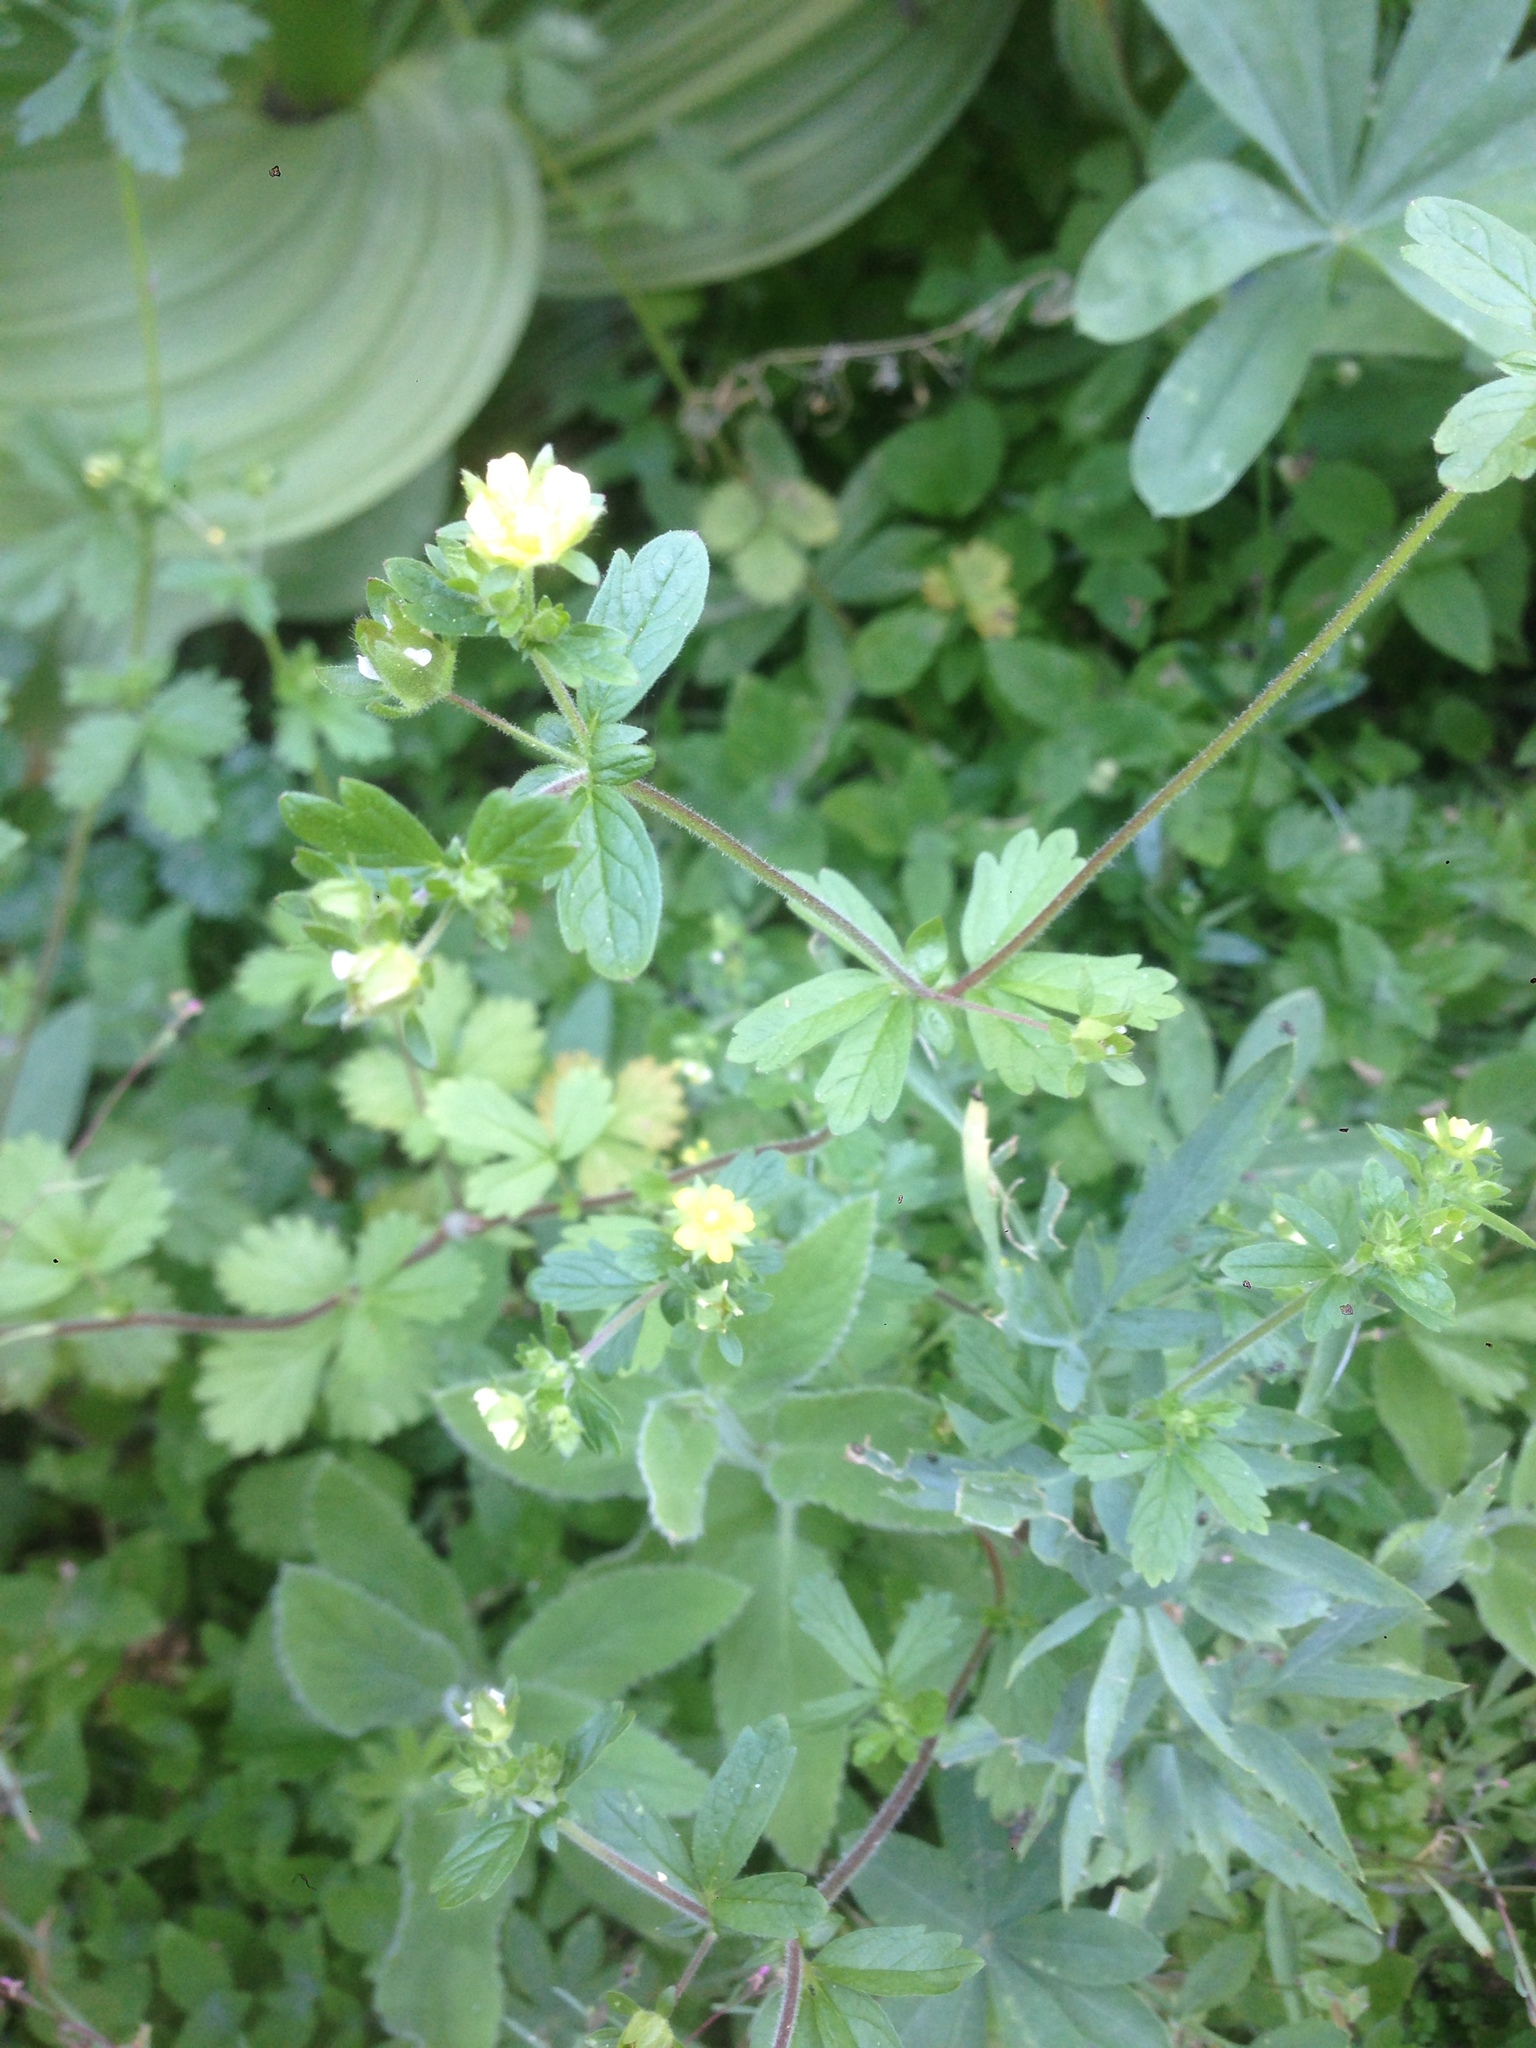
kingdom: Plantae
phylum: Tracheophyta
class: Magnoliopsida
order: Rosales
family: Rosaceae
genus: Potentilla
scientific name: Potentilla biennis
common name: Greene's cinquefoil
